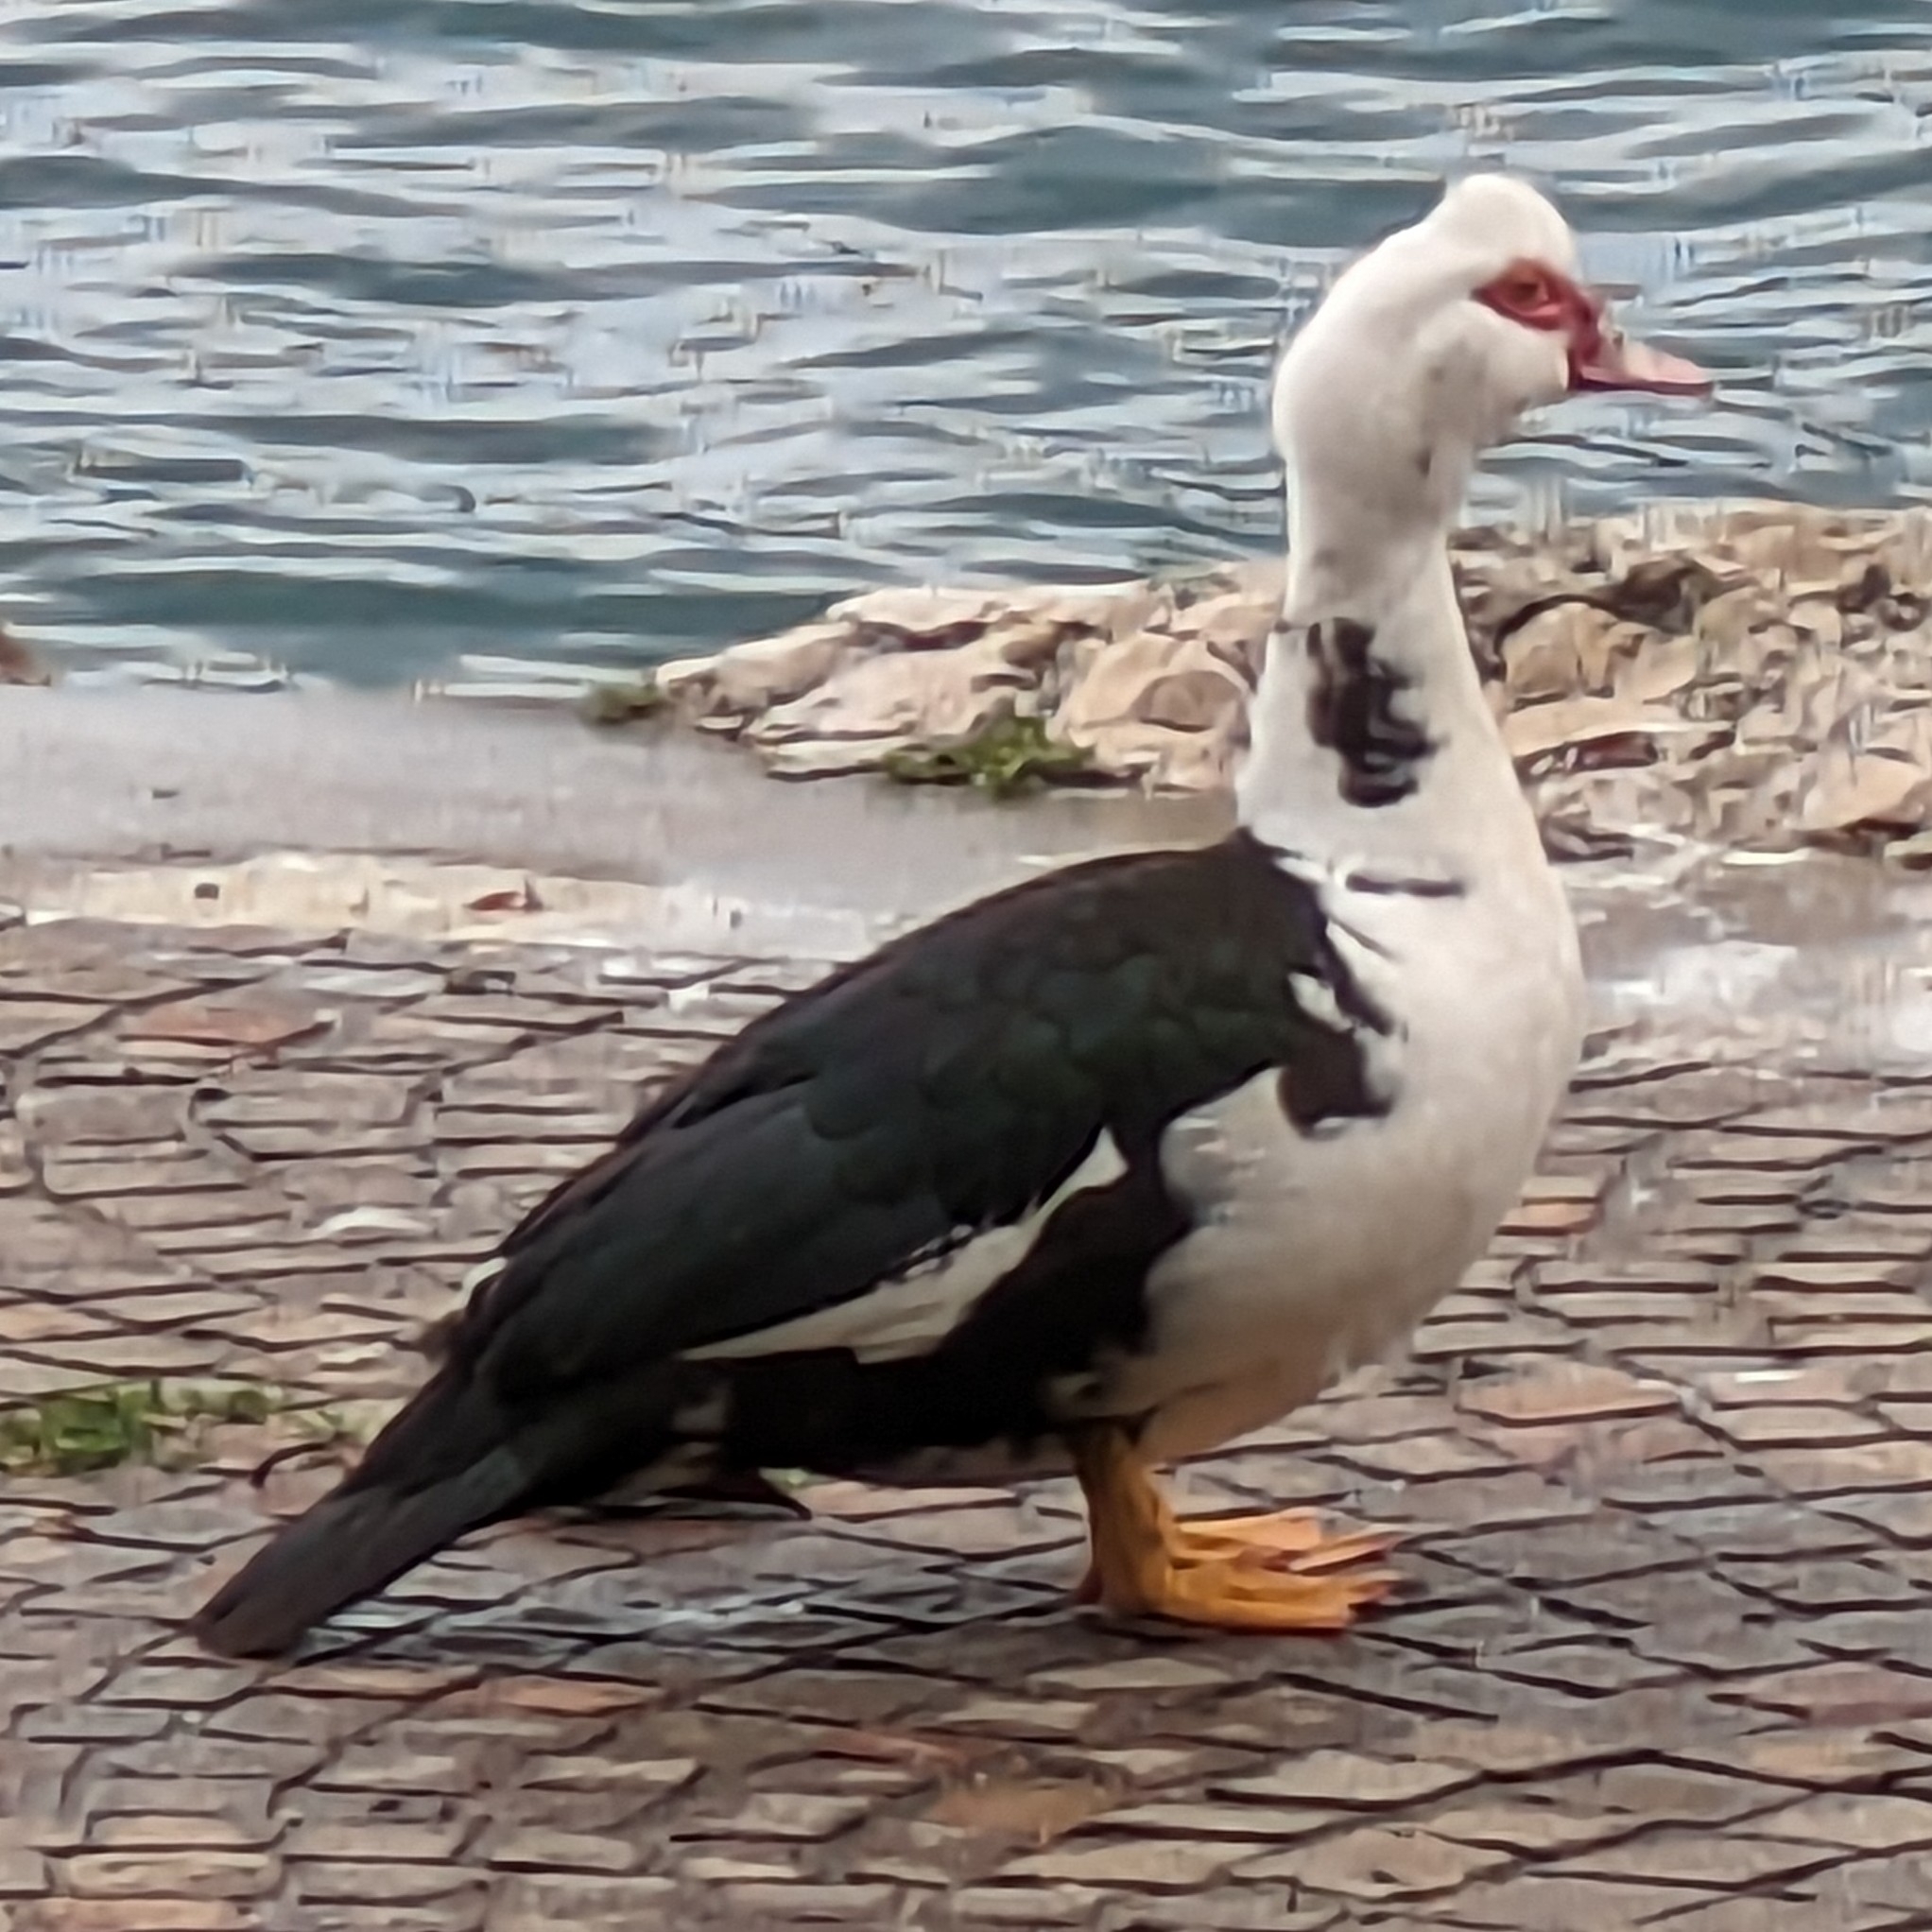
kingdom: Animalia
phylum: Chordata
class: Aves
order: Anseriformes
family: Anatidae
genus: Cairina
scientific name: Cairina moschata
